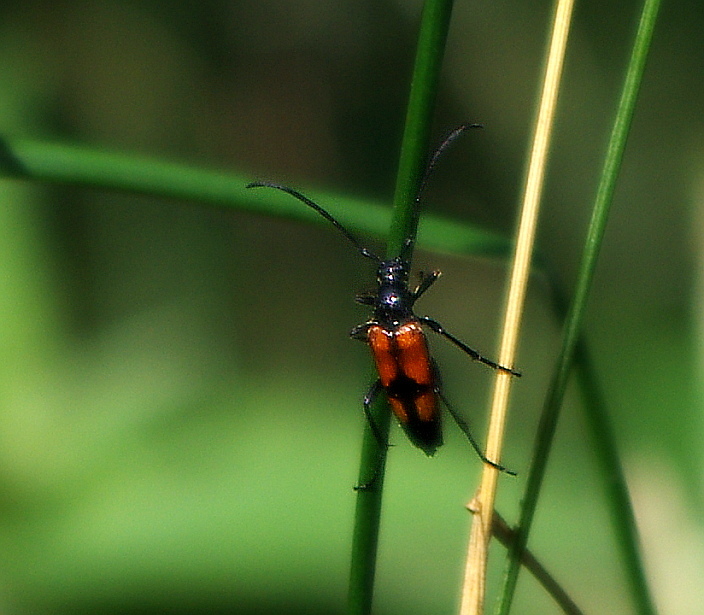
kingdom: Animalia
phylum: Arthropoda
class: Insecta
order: Coleoptera
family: Cerambycidae
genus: Stenurella
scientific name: Stenurella bifasciata
